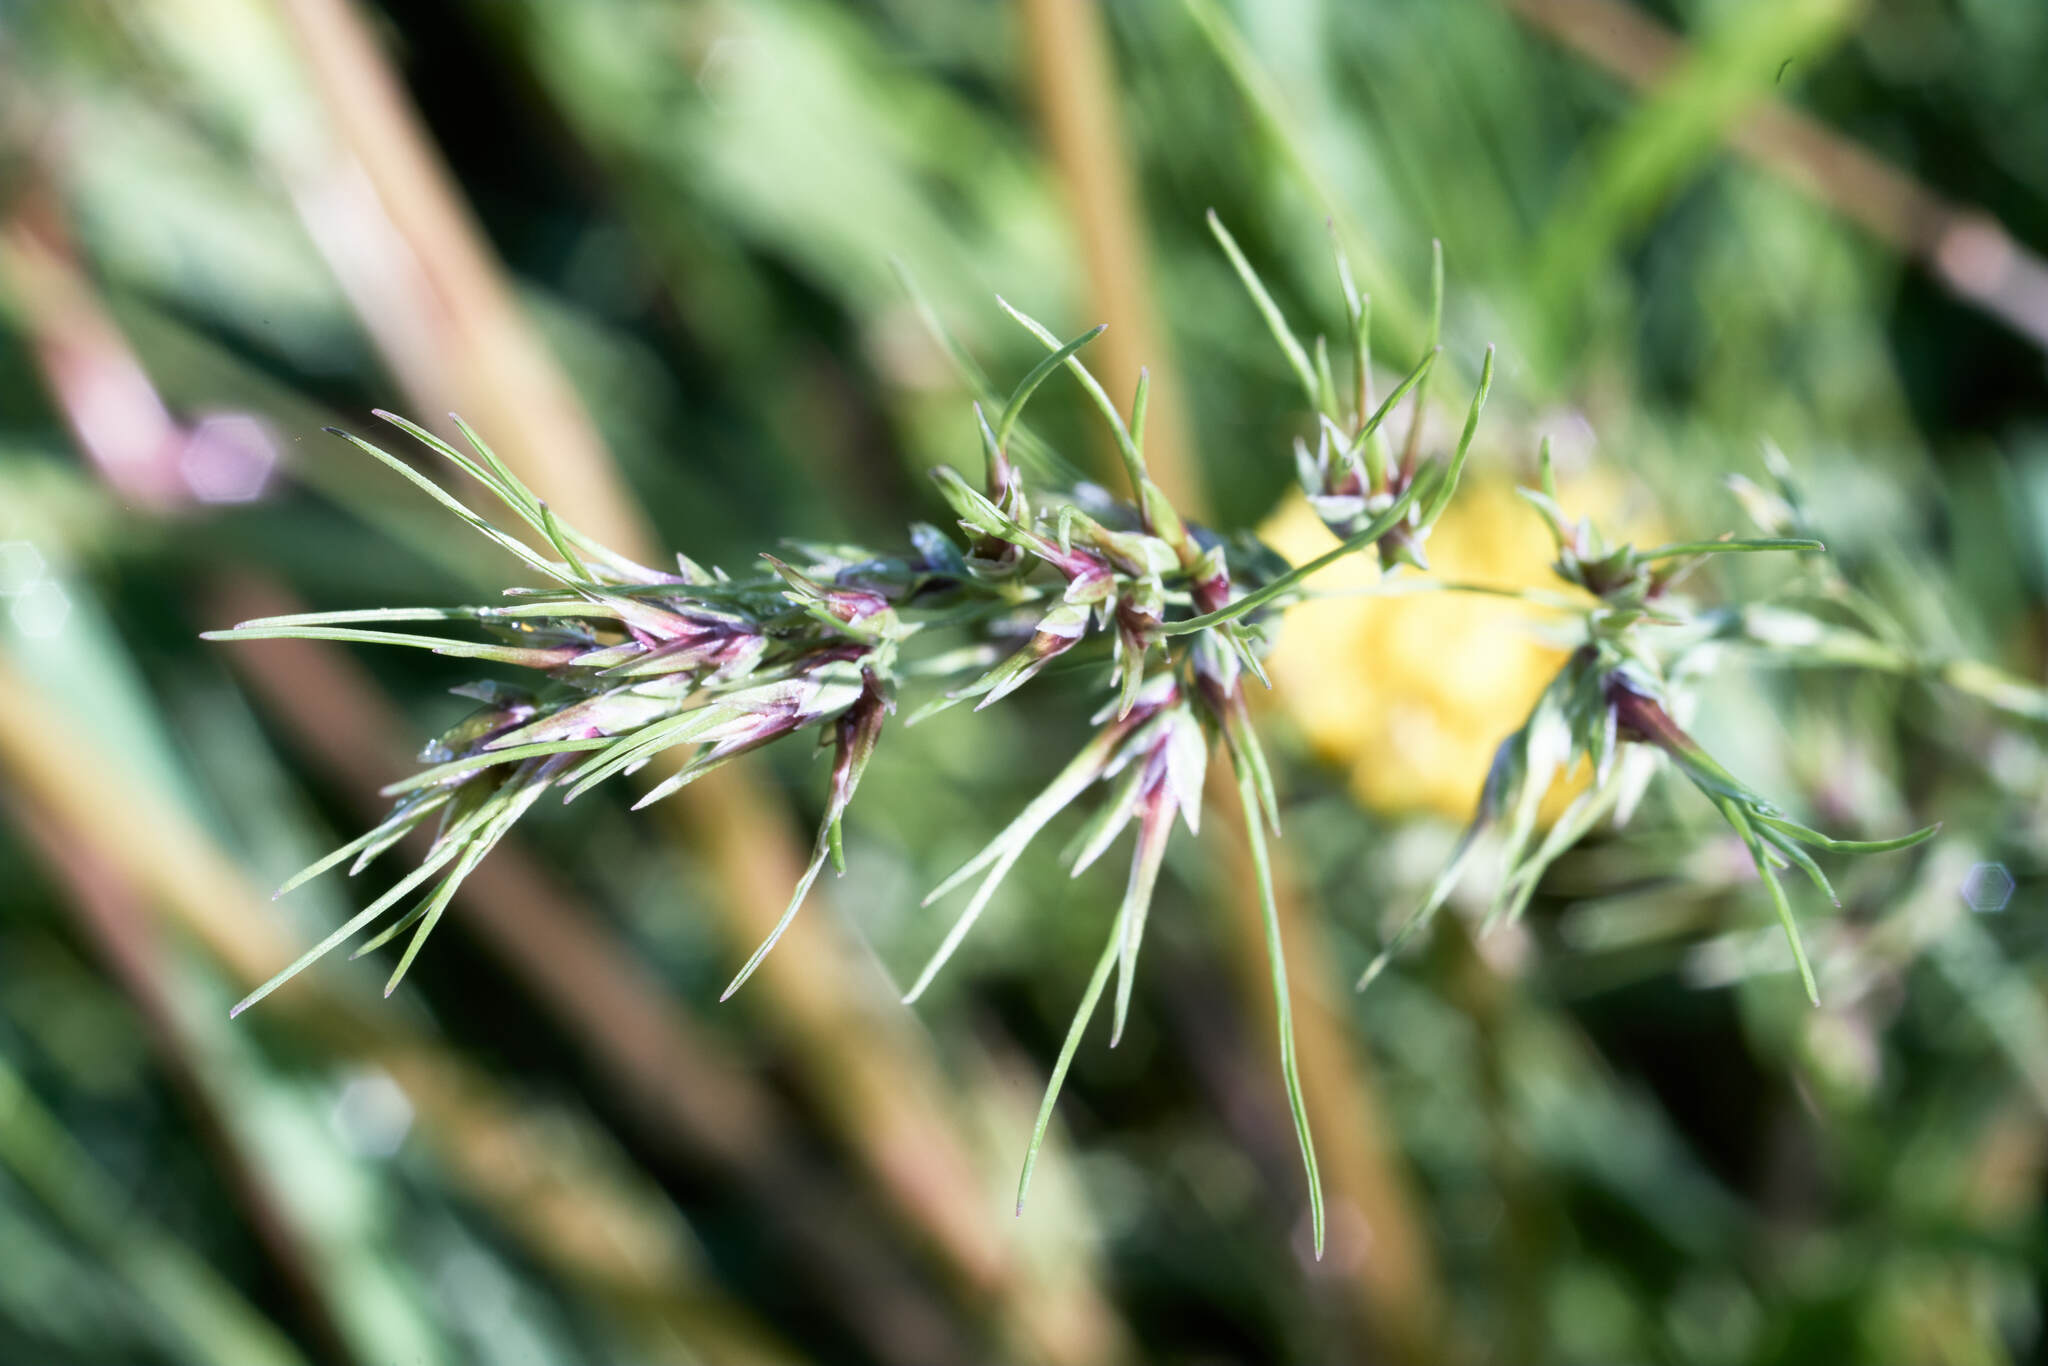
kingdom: Plantae
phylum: Tracheophyta
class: Liliopsida
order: Poales
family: Poaceae
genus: Poa
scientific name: Poa bulbosa
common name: Bulbous bluegrass
